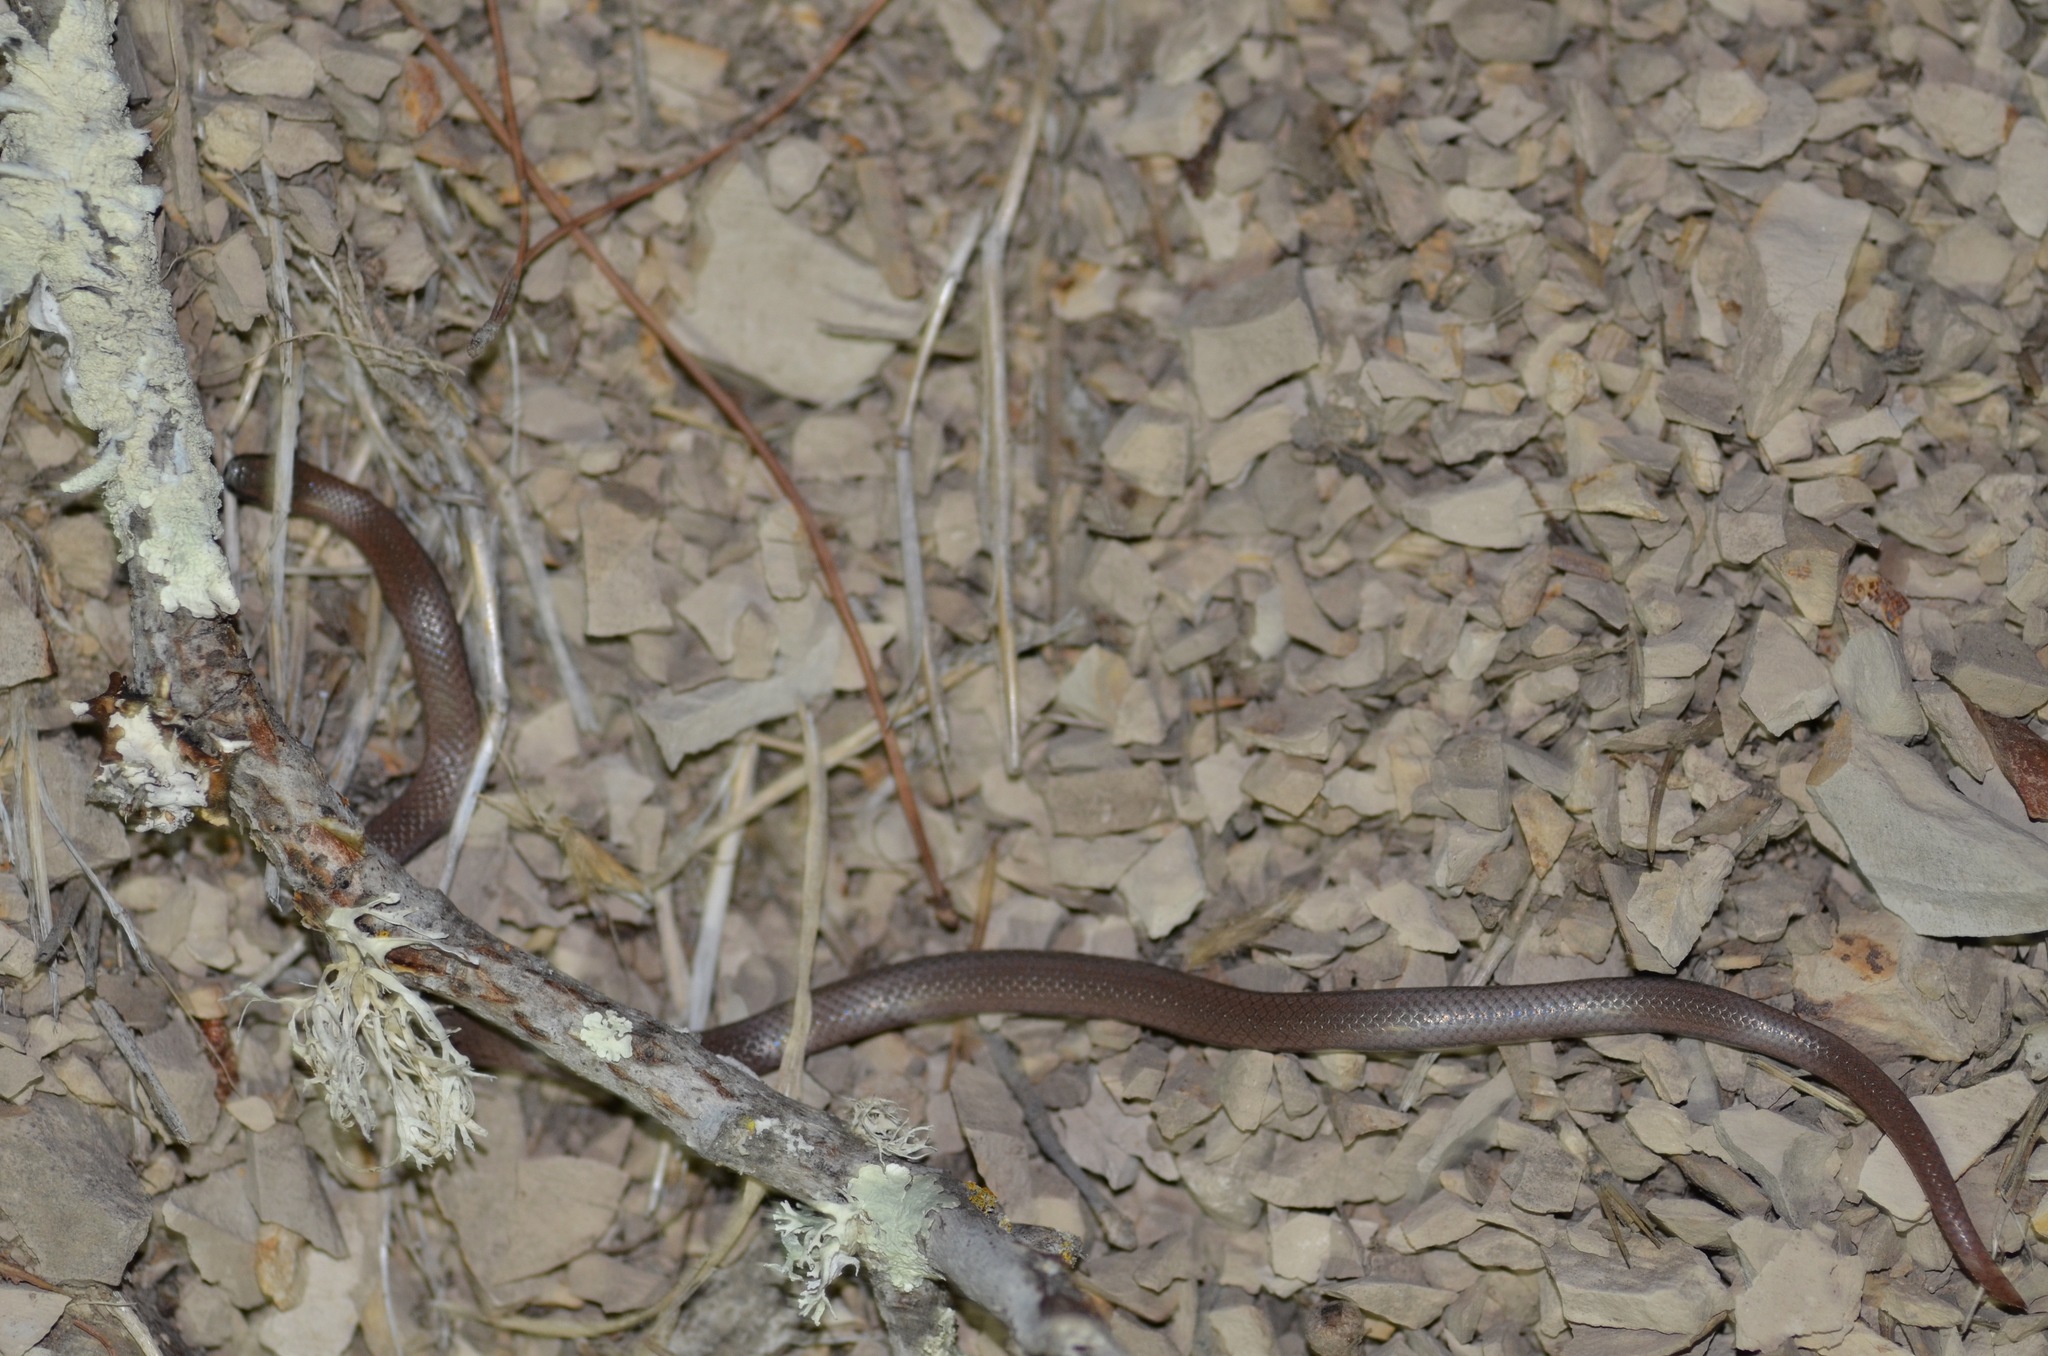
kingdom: Animalia
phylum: Chordata
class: Squamata
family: Colubridae
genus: Contia
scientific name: Contia tenuis
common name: Sharptail snake
